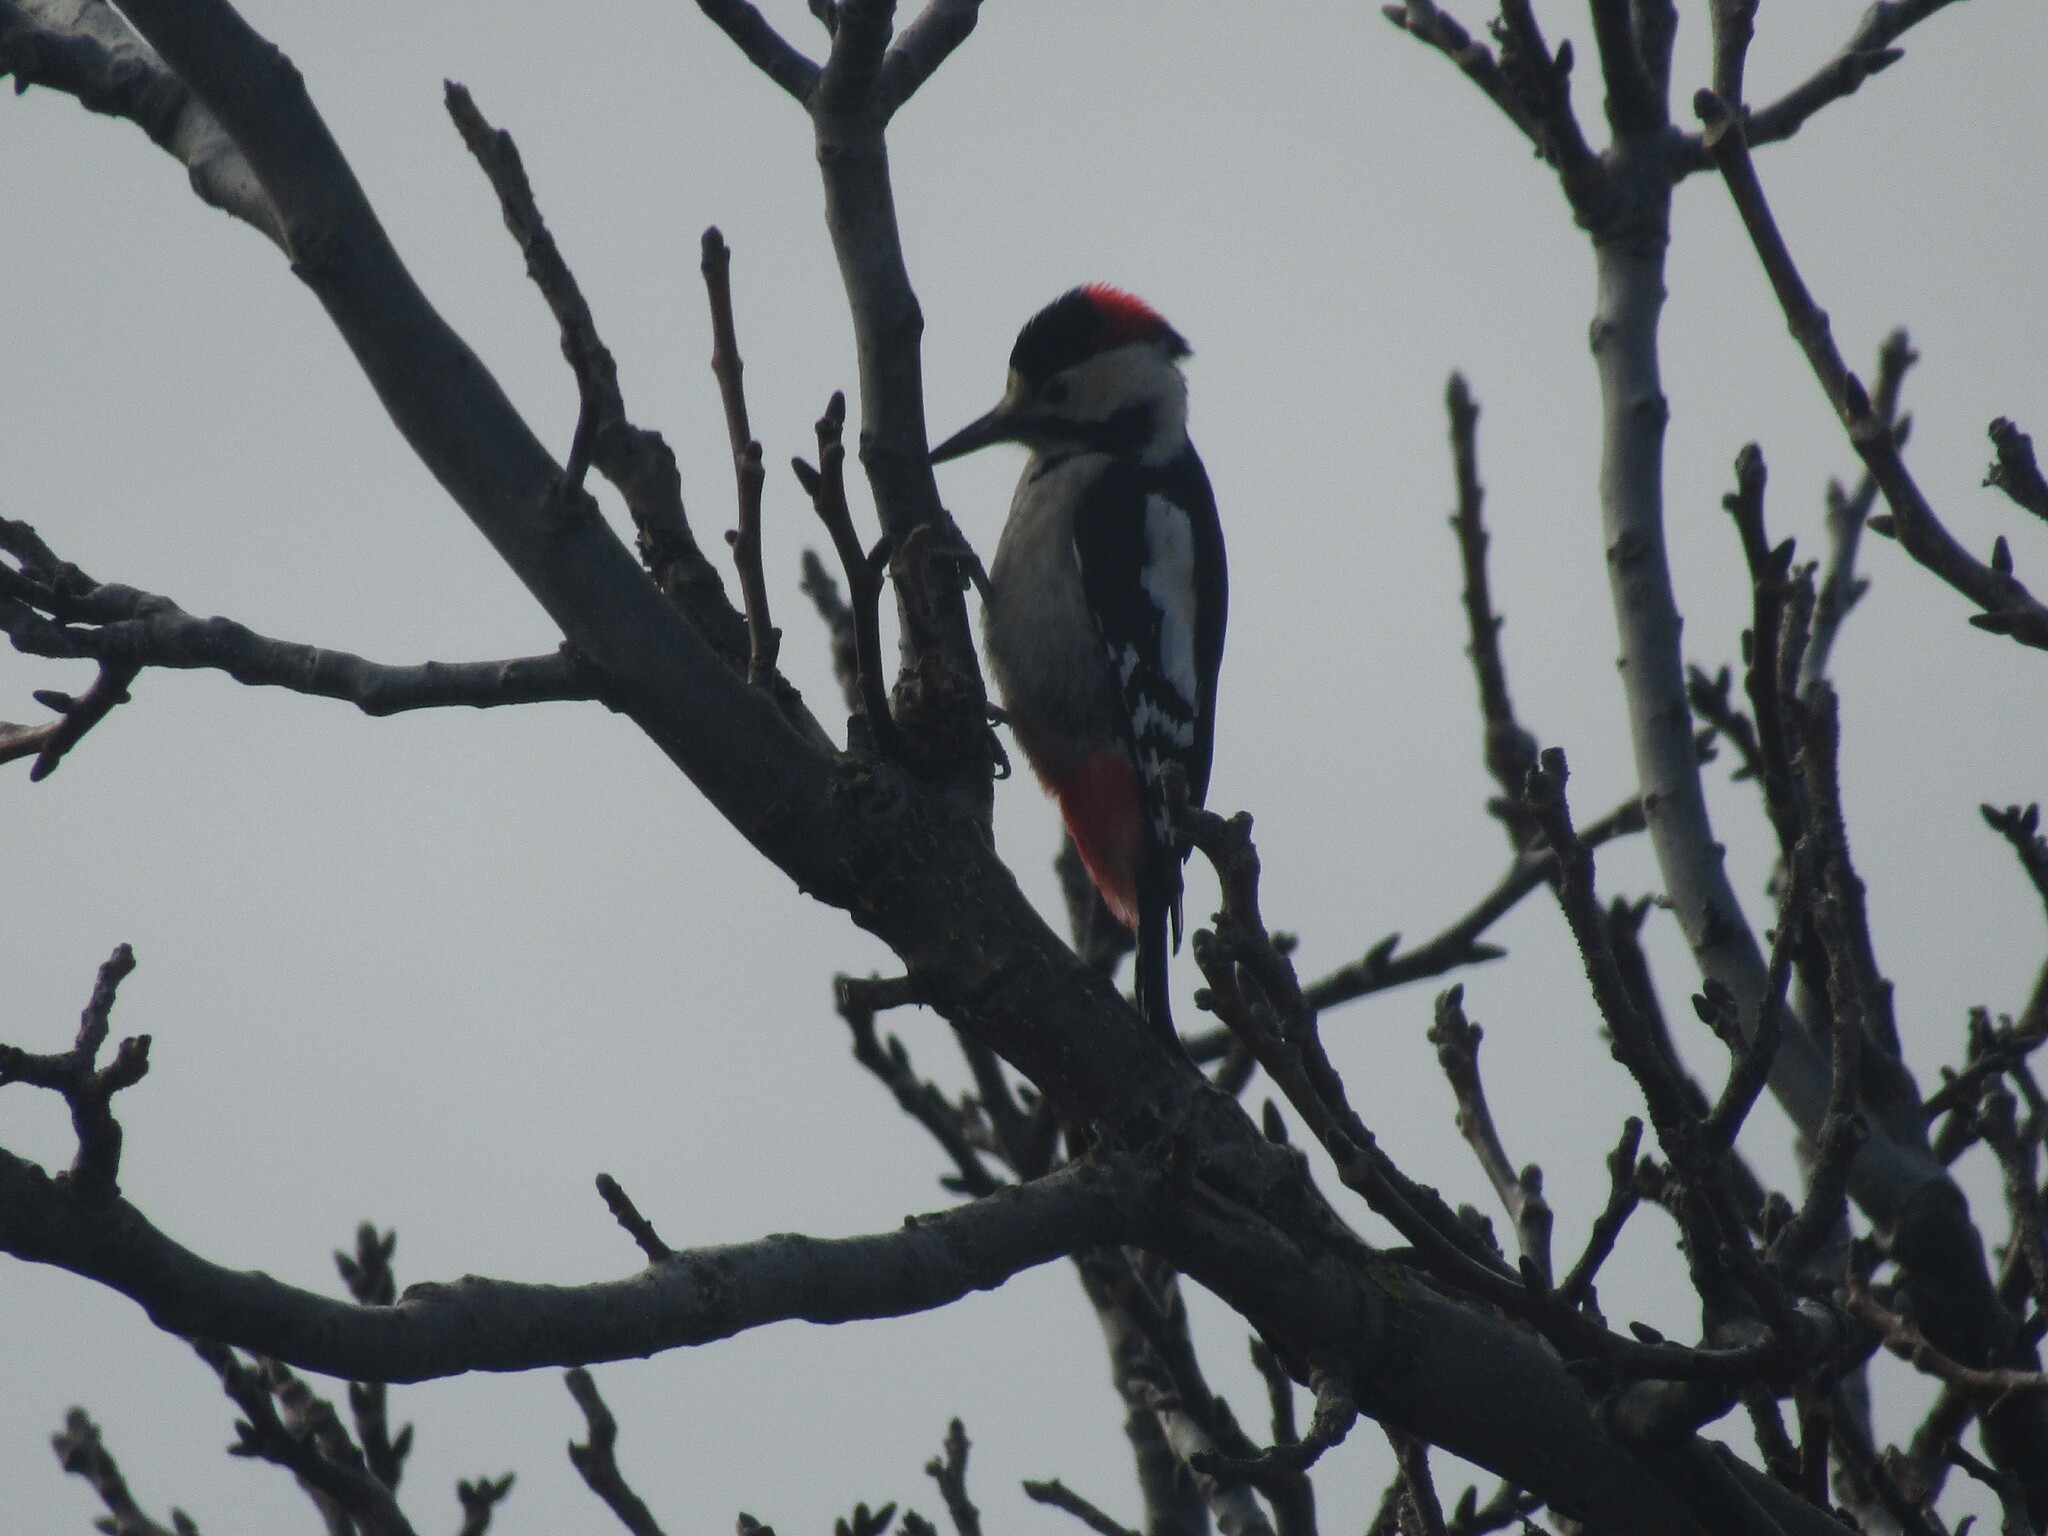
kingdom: Animalia
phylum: Chordata
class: Aves
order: Piciformes
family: Picidae
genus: Dendrocopos
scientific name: Dendrocopos syriacus
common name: Syrian woodpecker
